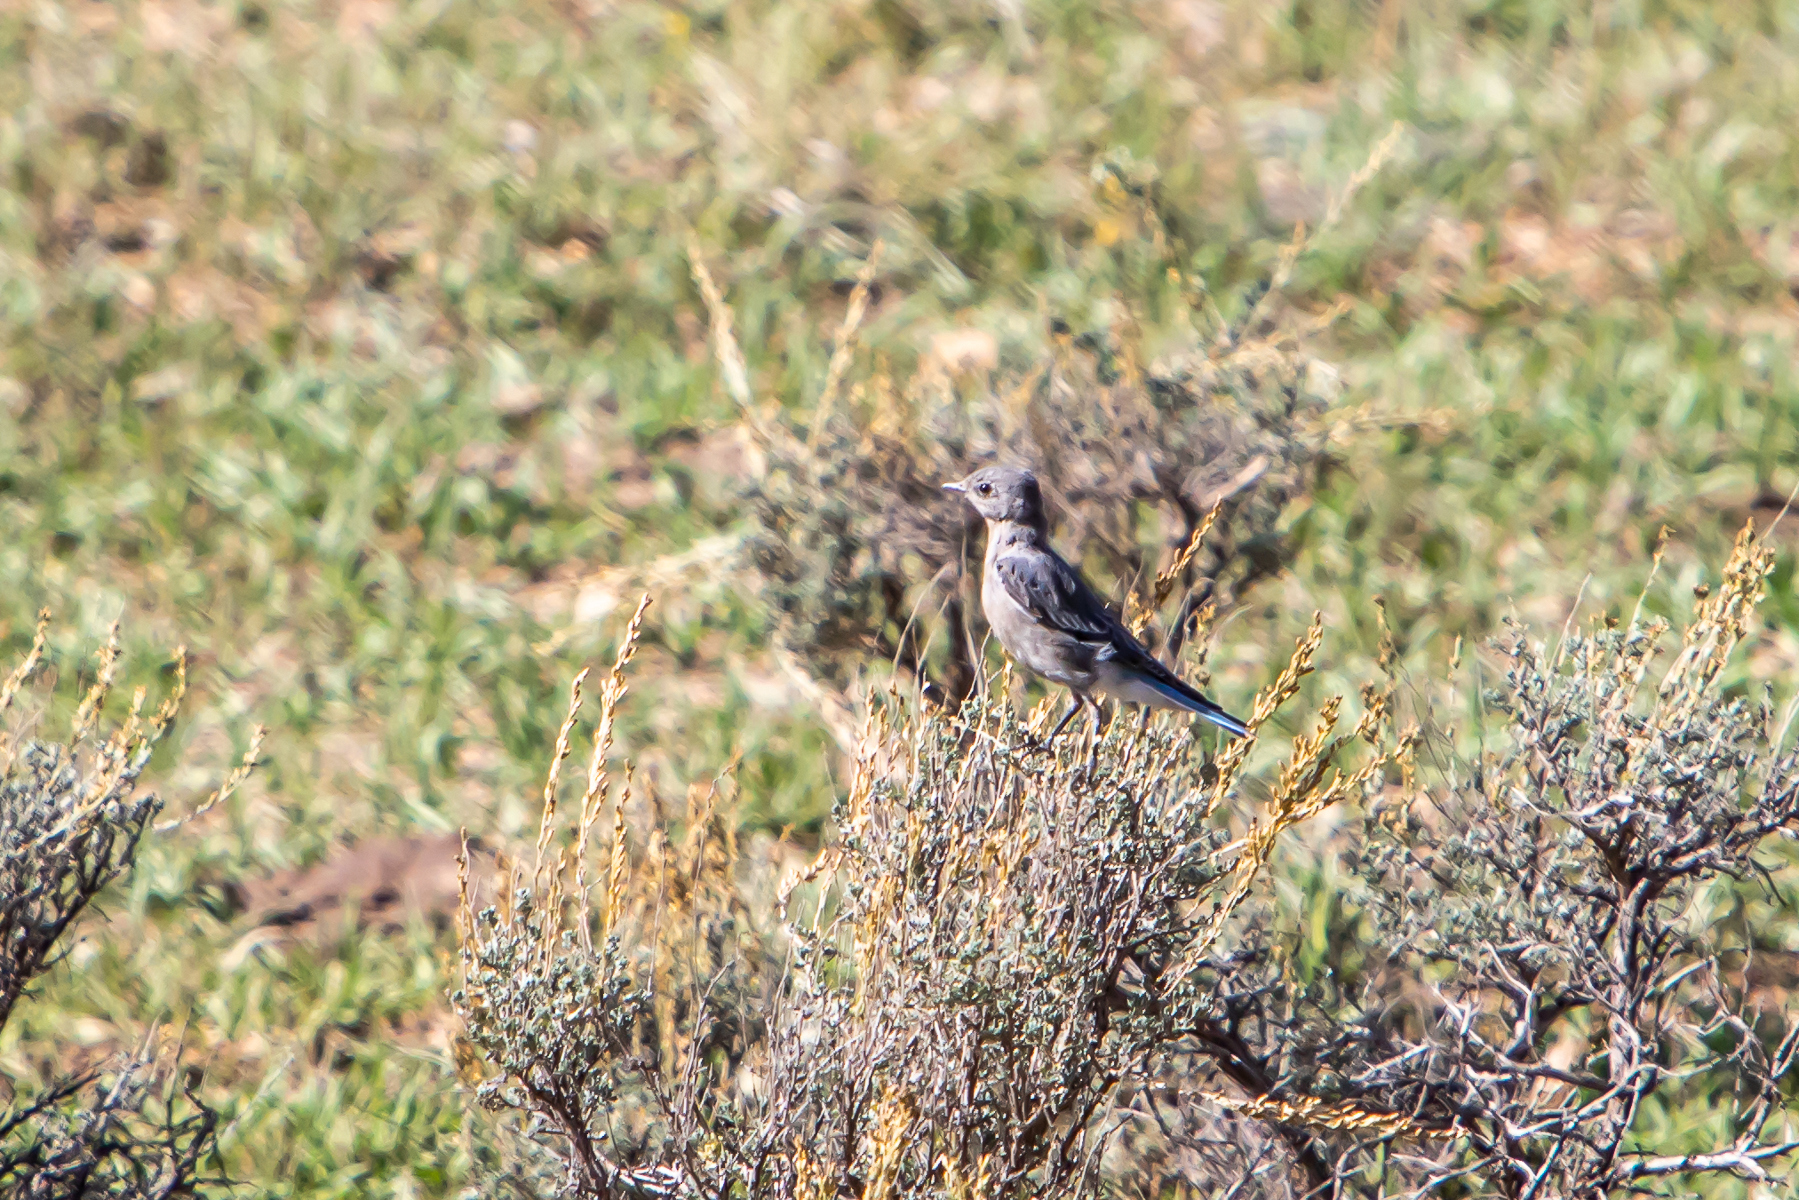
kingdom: Animalia
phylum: Chordata
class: Aves
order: Passeriformes
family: Turdidae
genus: Sialia
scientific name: Sialia currucoides
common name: Mountain bluebird
